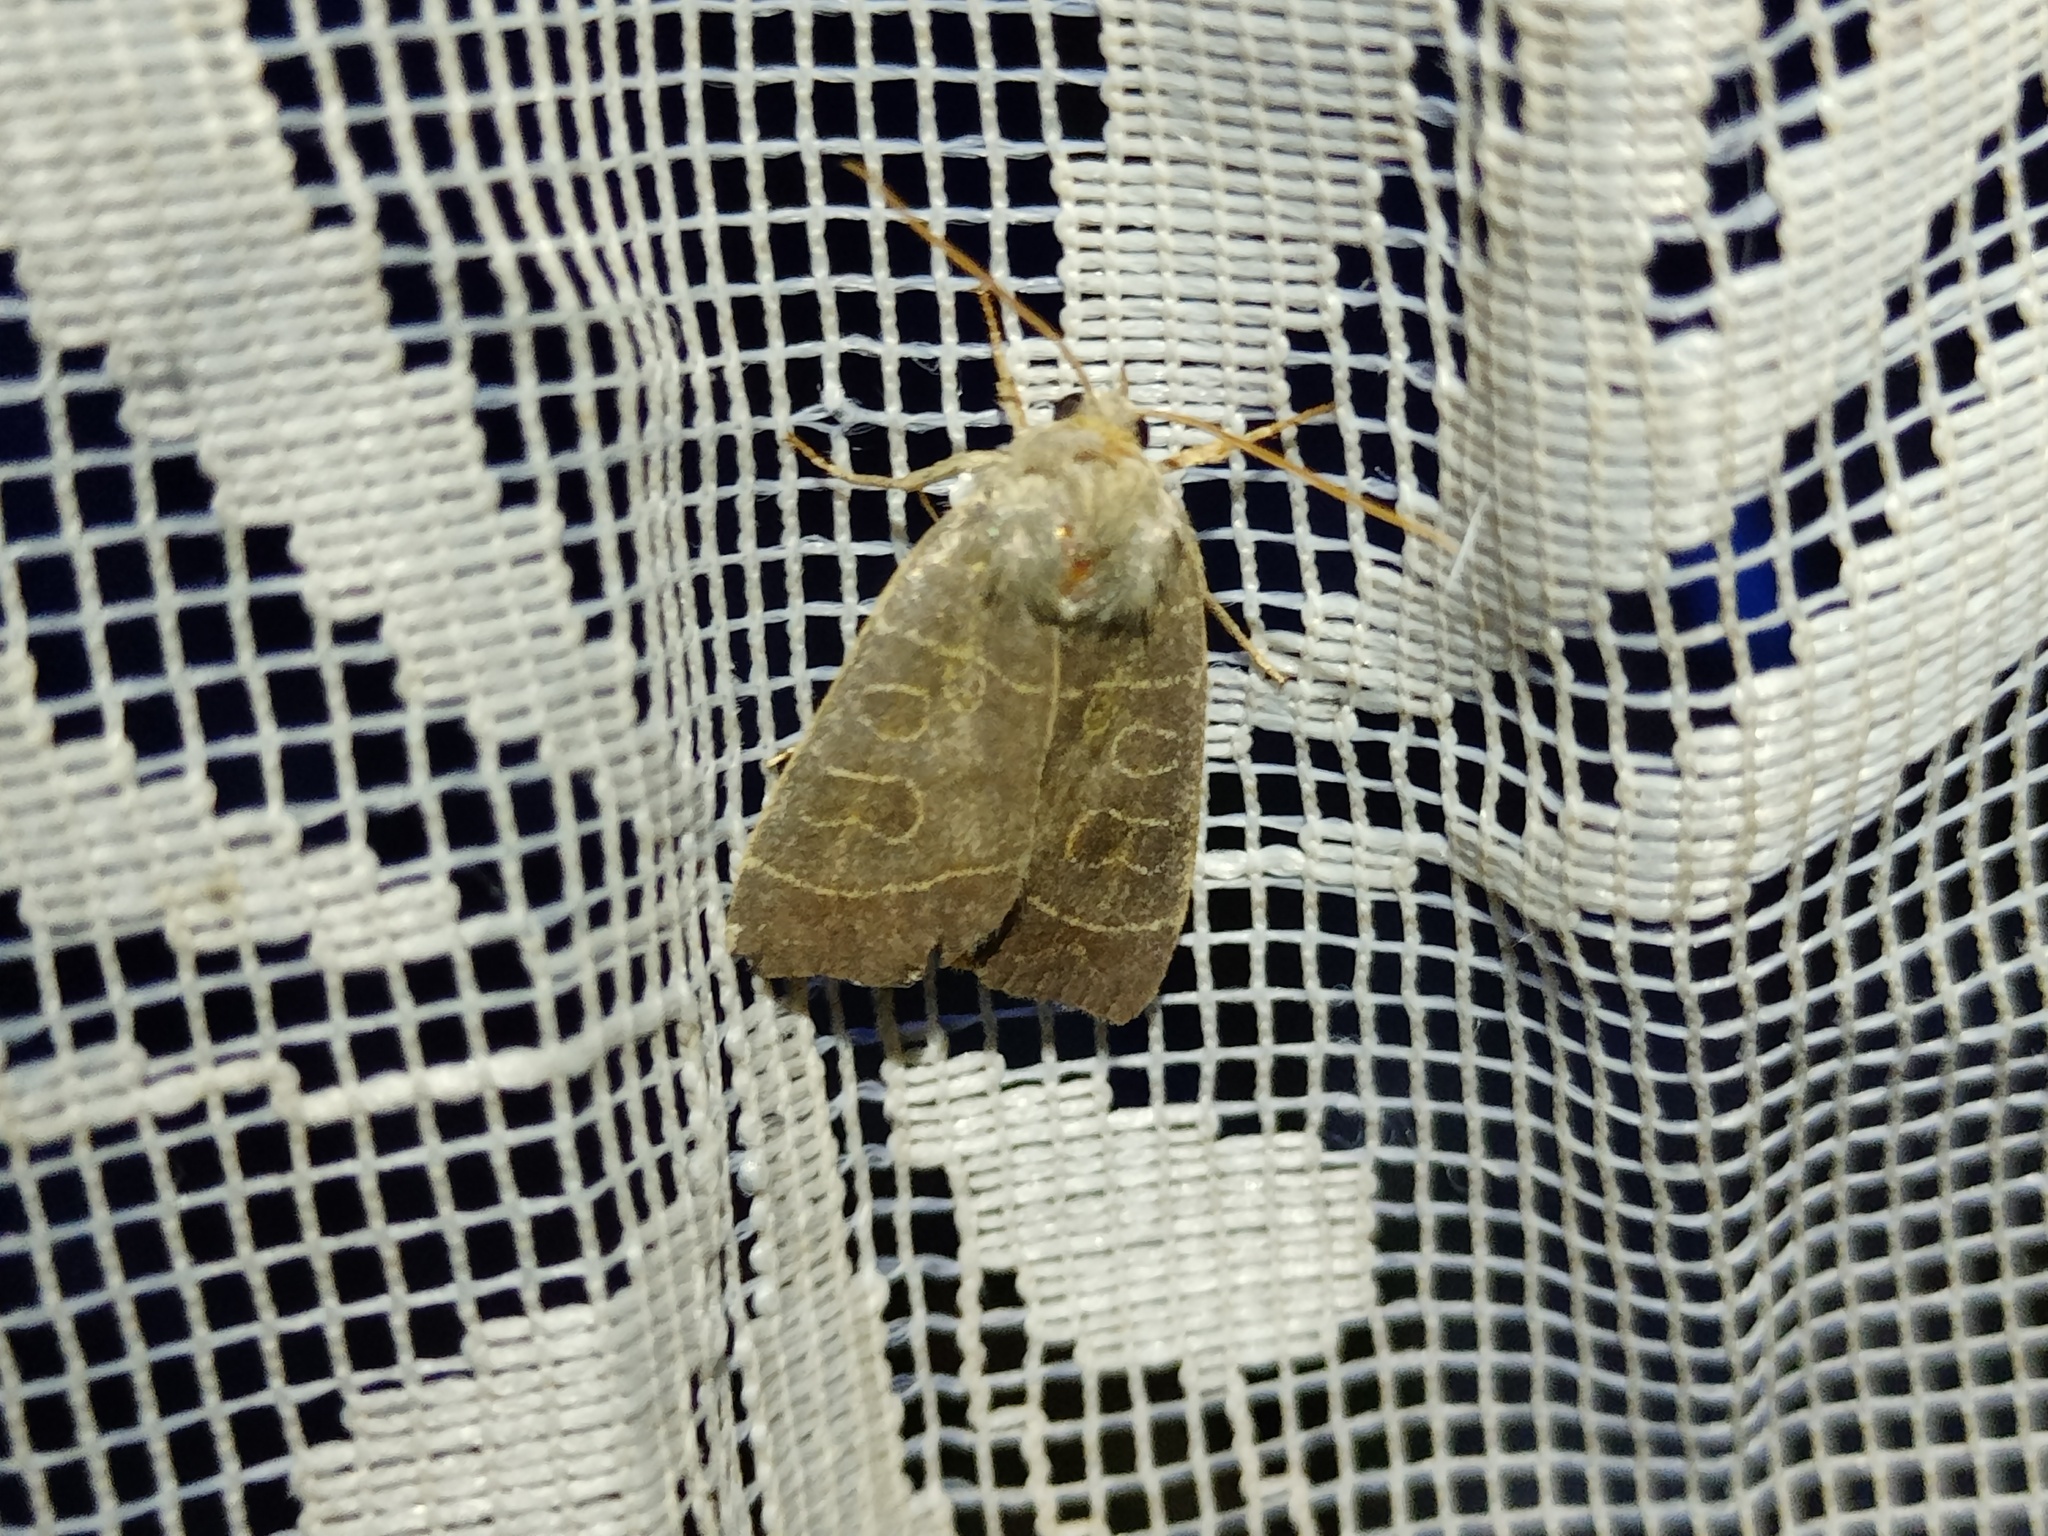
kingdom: Animalia
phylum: Arthropoda
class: Insecta
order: Lepidoptera
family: Noctuidae
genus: Ipimorpha
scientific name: Ipimorpha subtusa
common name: Olive
